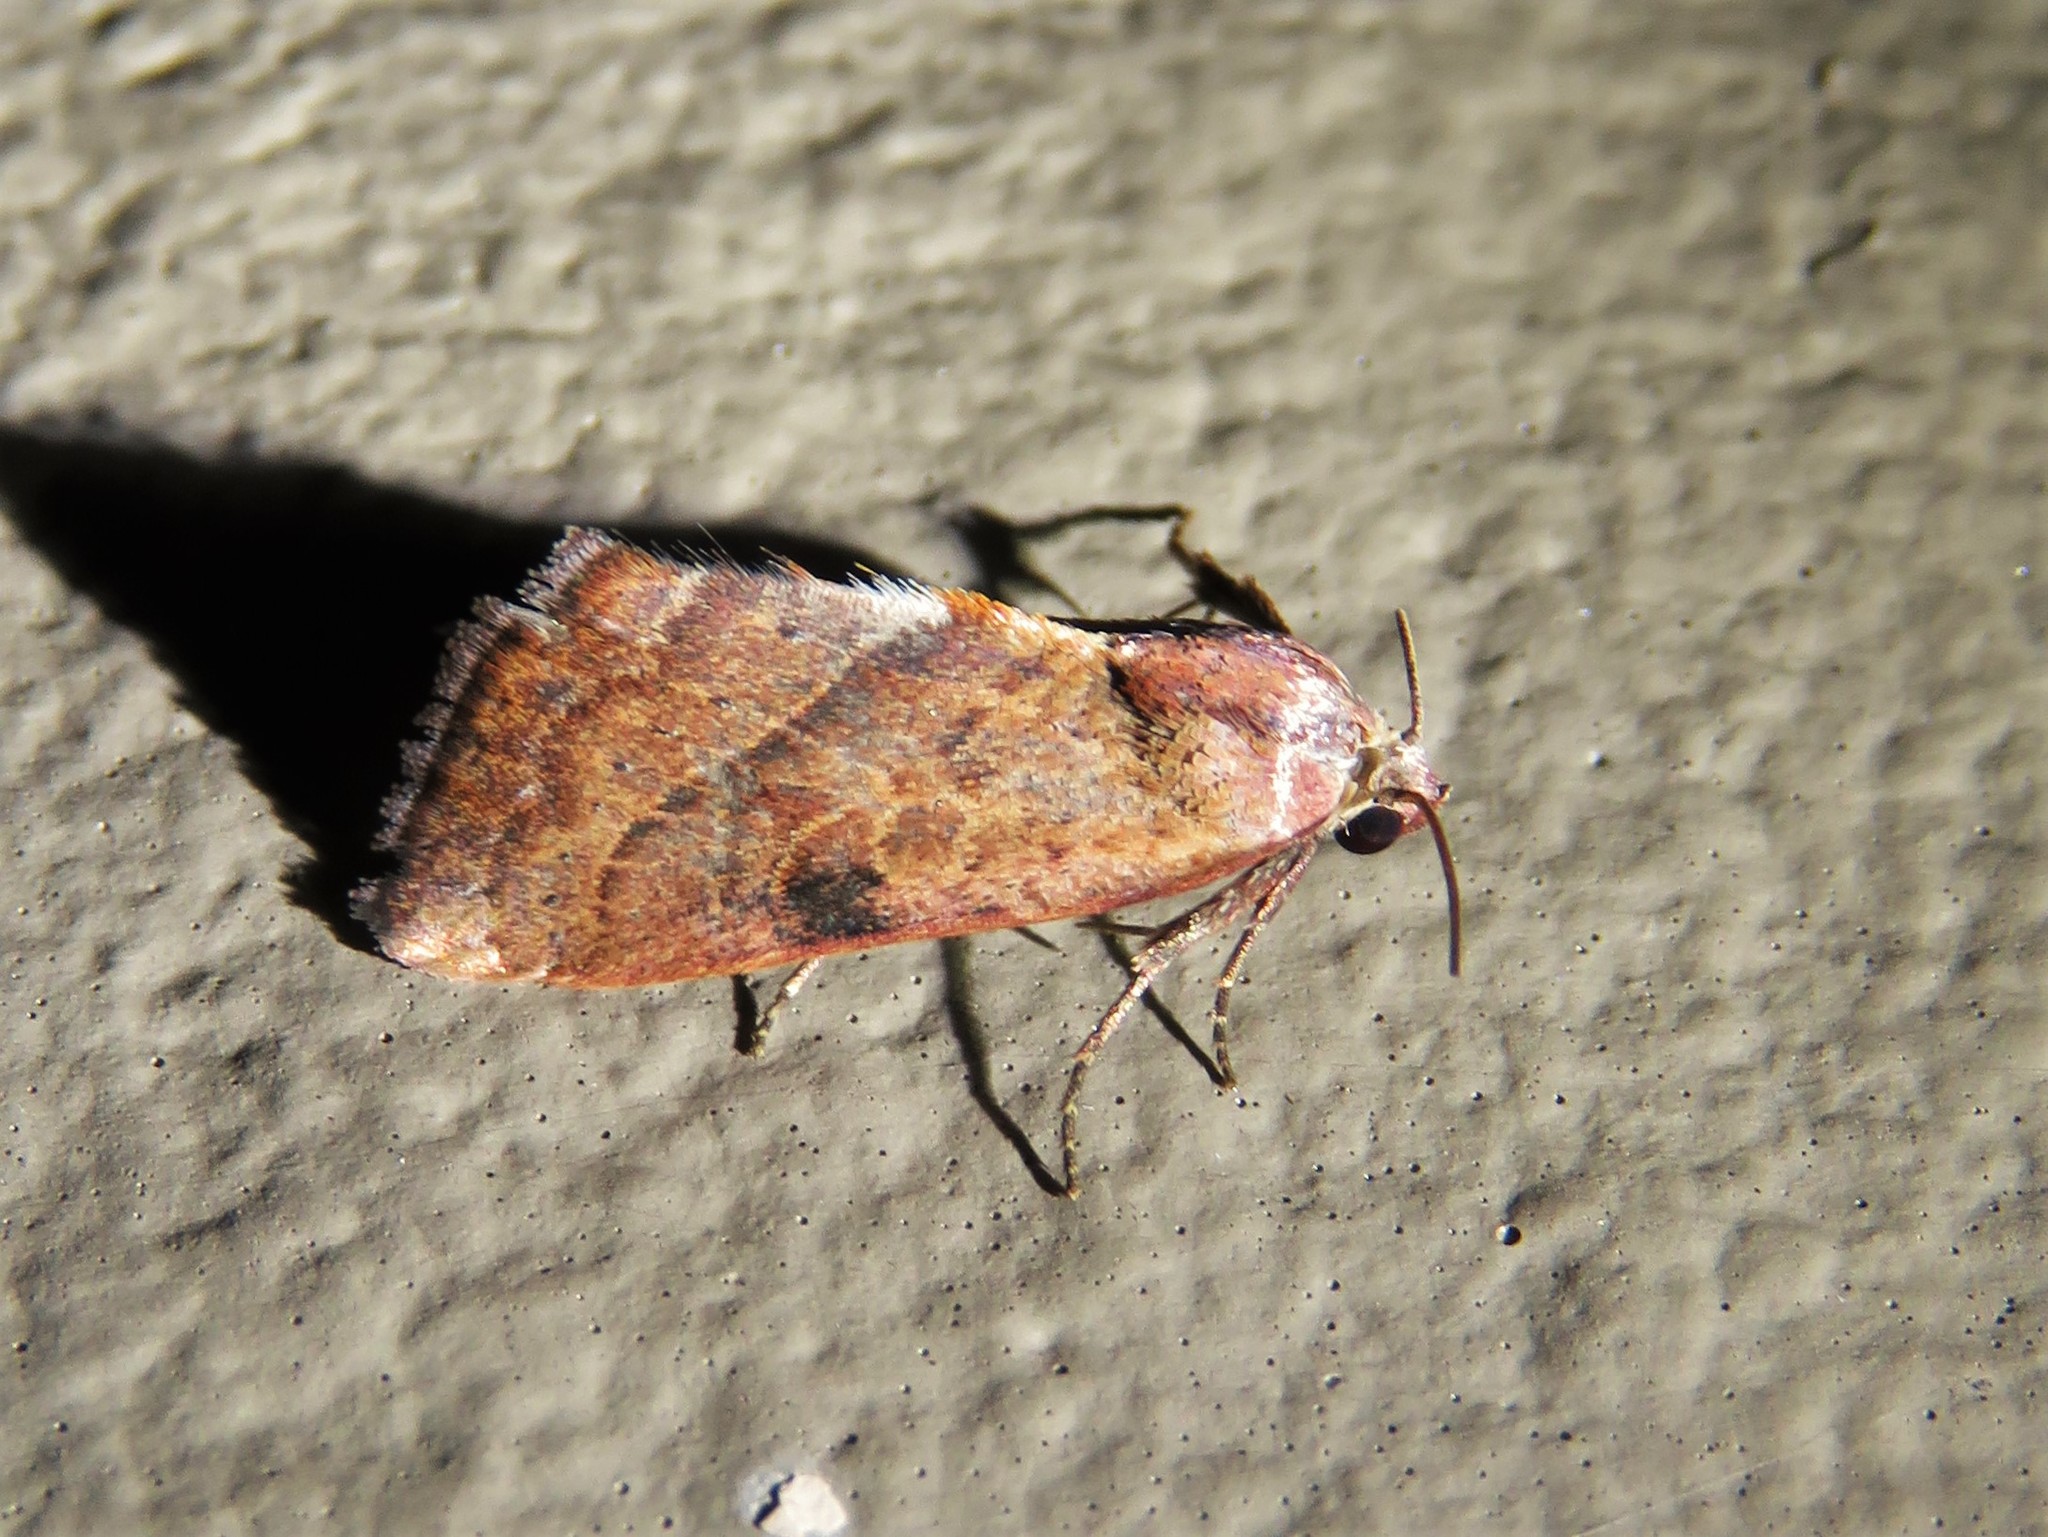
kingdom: Animalia
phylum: Arthropoda
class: Insecta
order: Lepidoptera
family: Noctuidae
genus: Galgula
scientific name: Galgula partita
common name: Wedgeling
